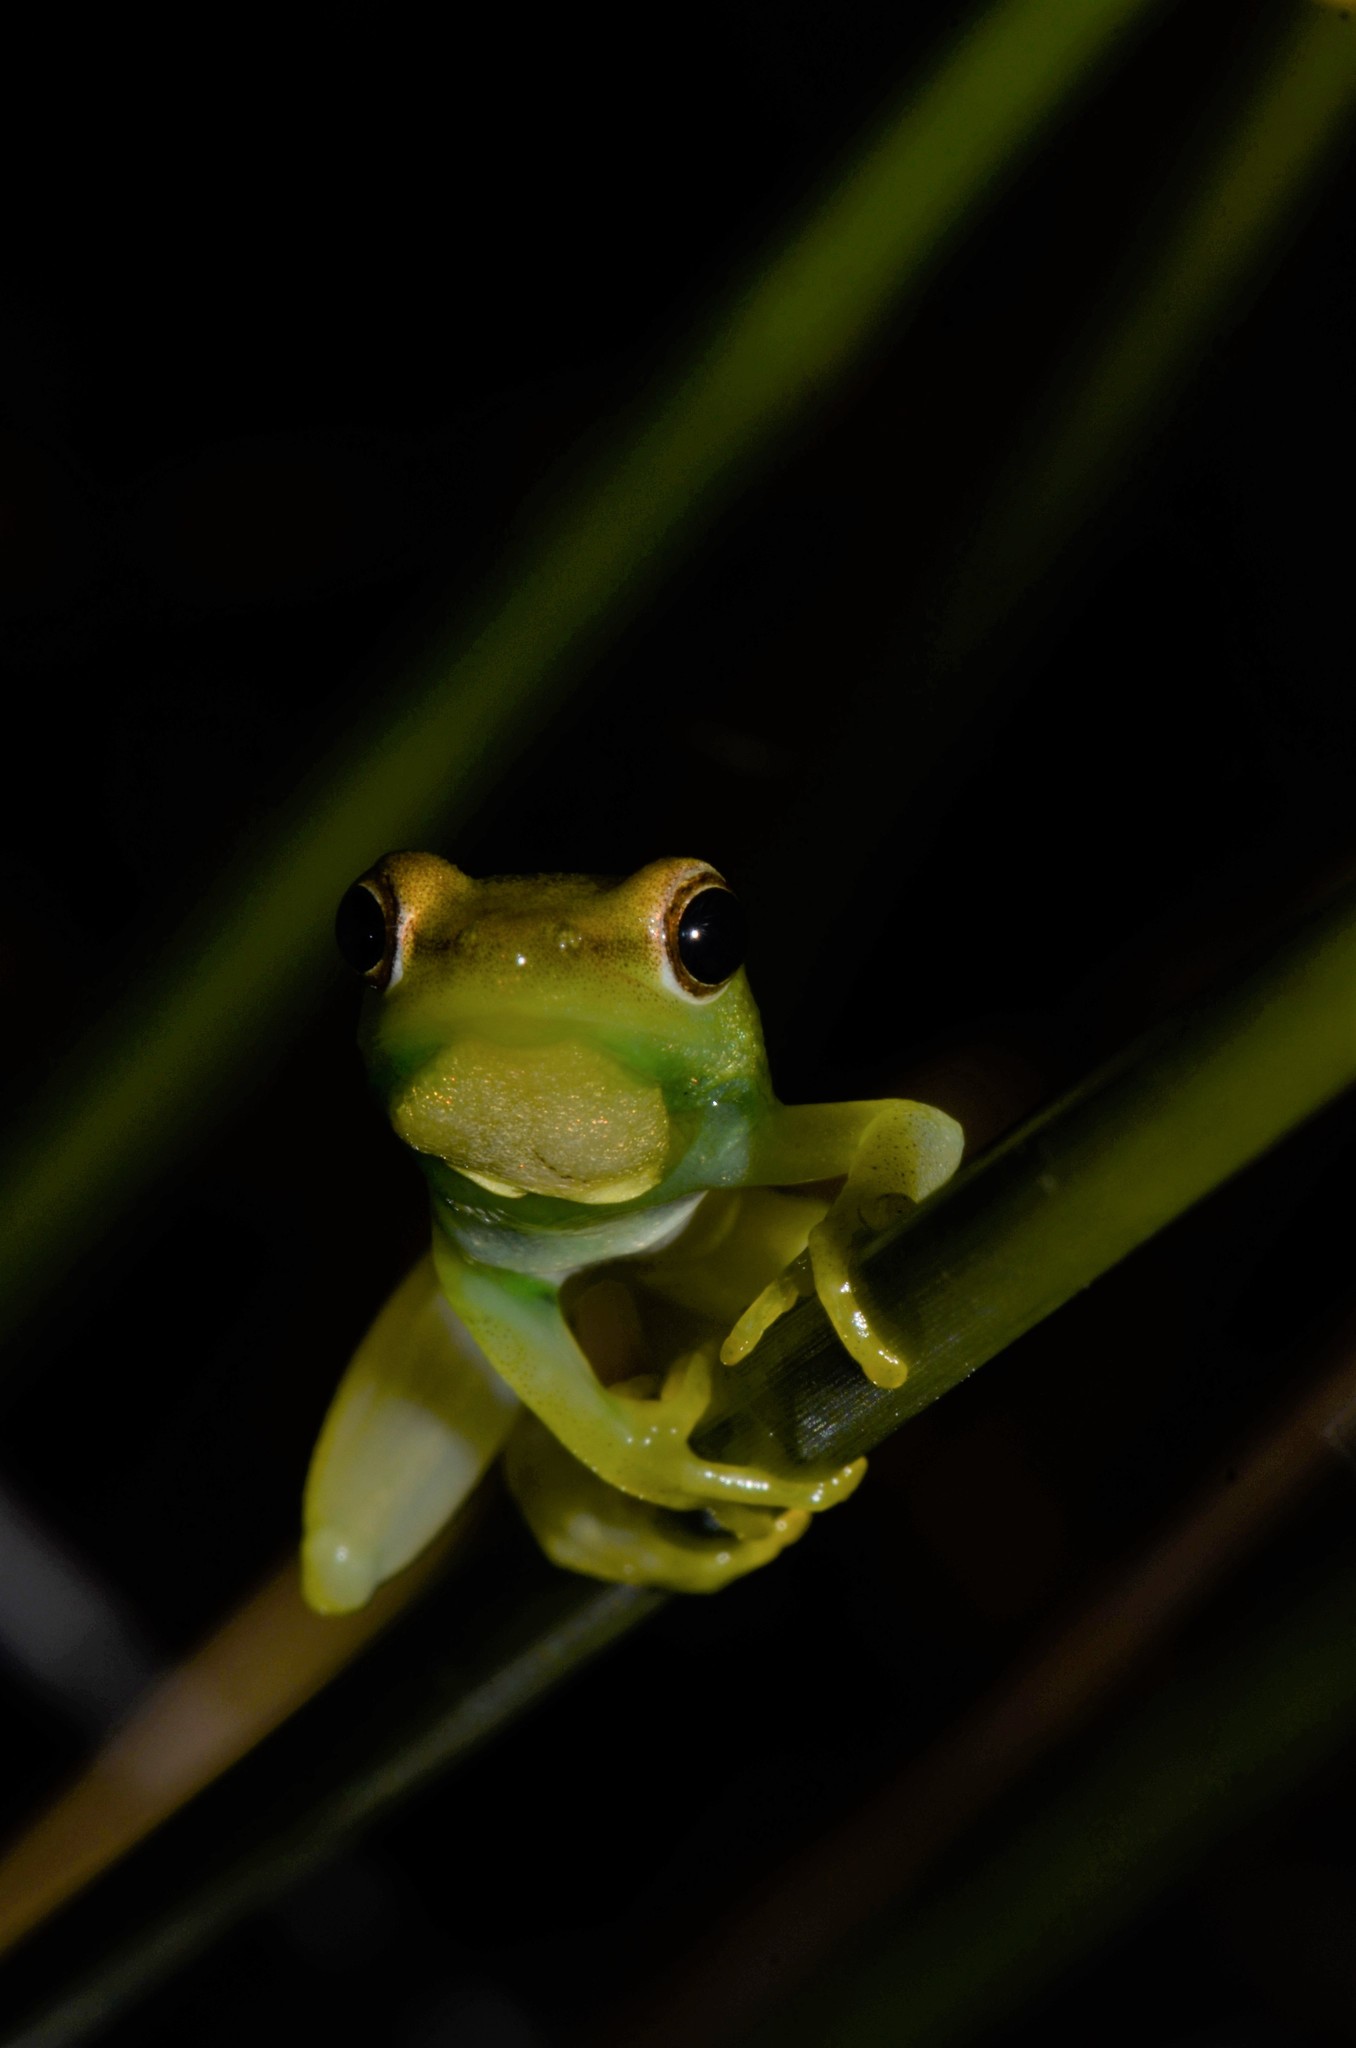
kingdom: Animalia
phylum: Chordata
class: Amphibia
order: Anura
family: Hyperoliidae
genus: Hyperolius
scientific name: Hyperolius microps
